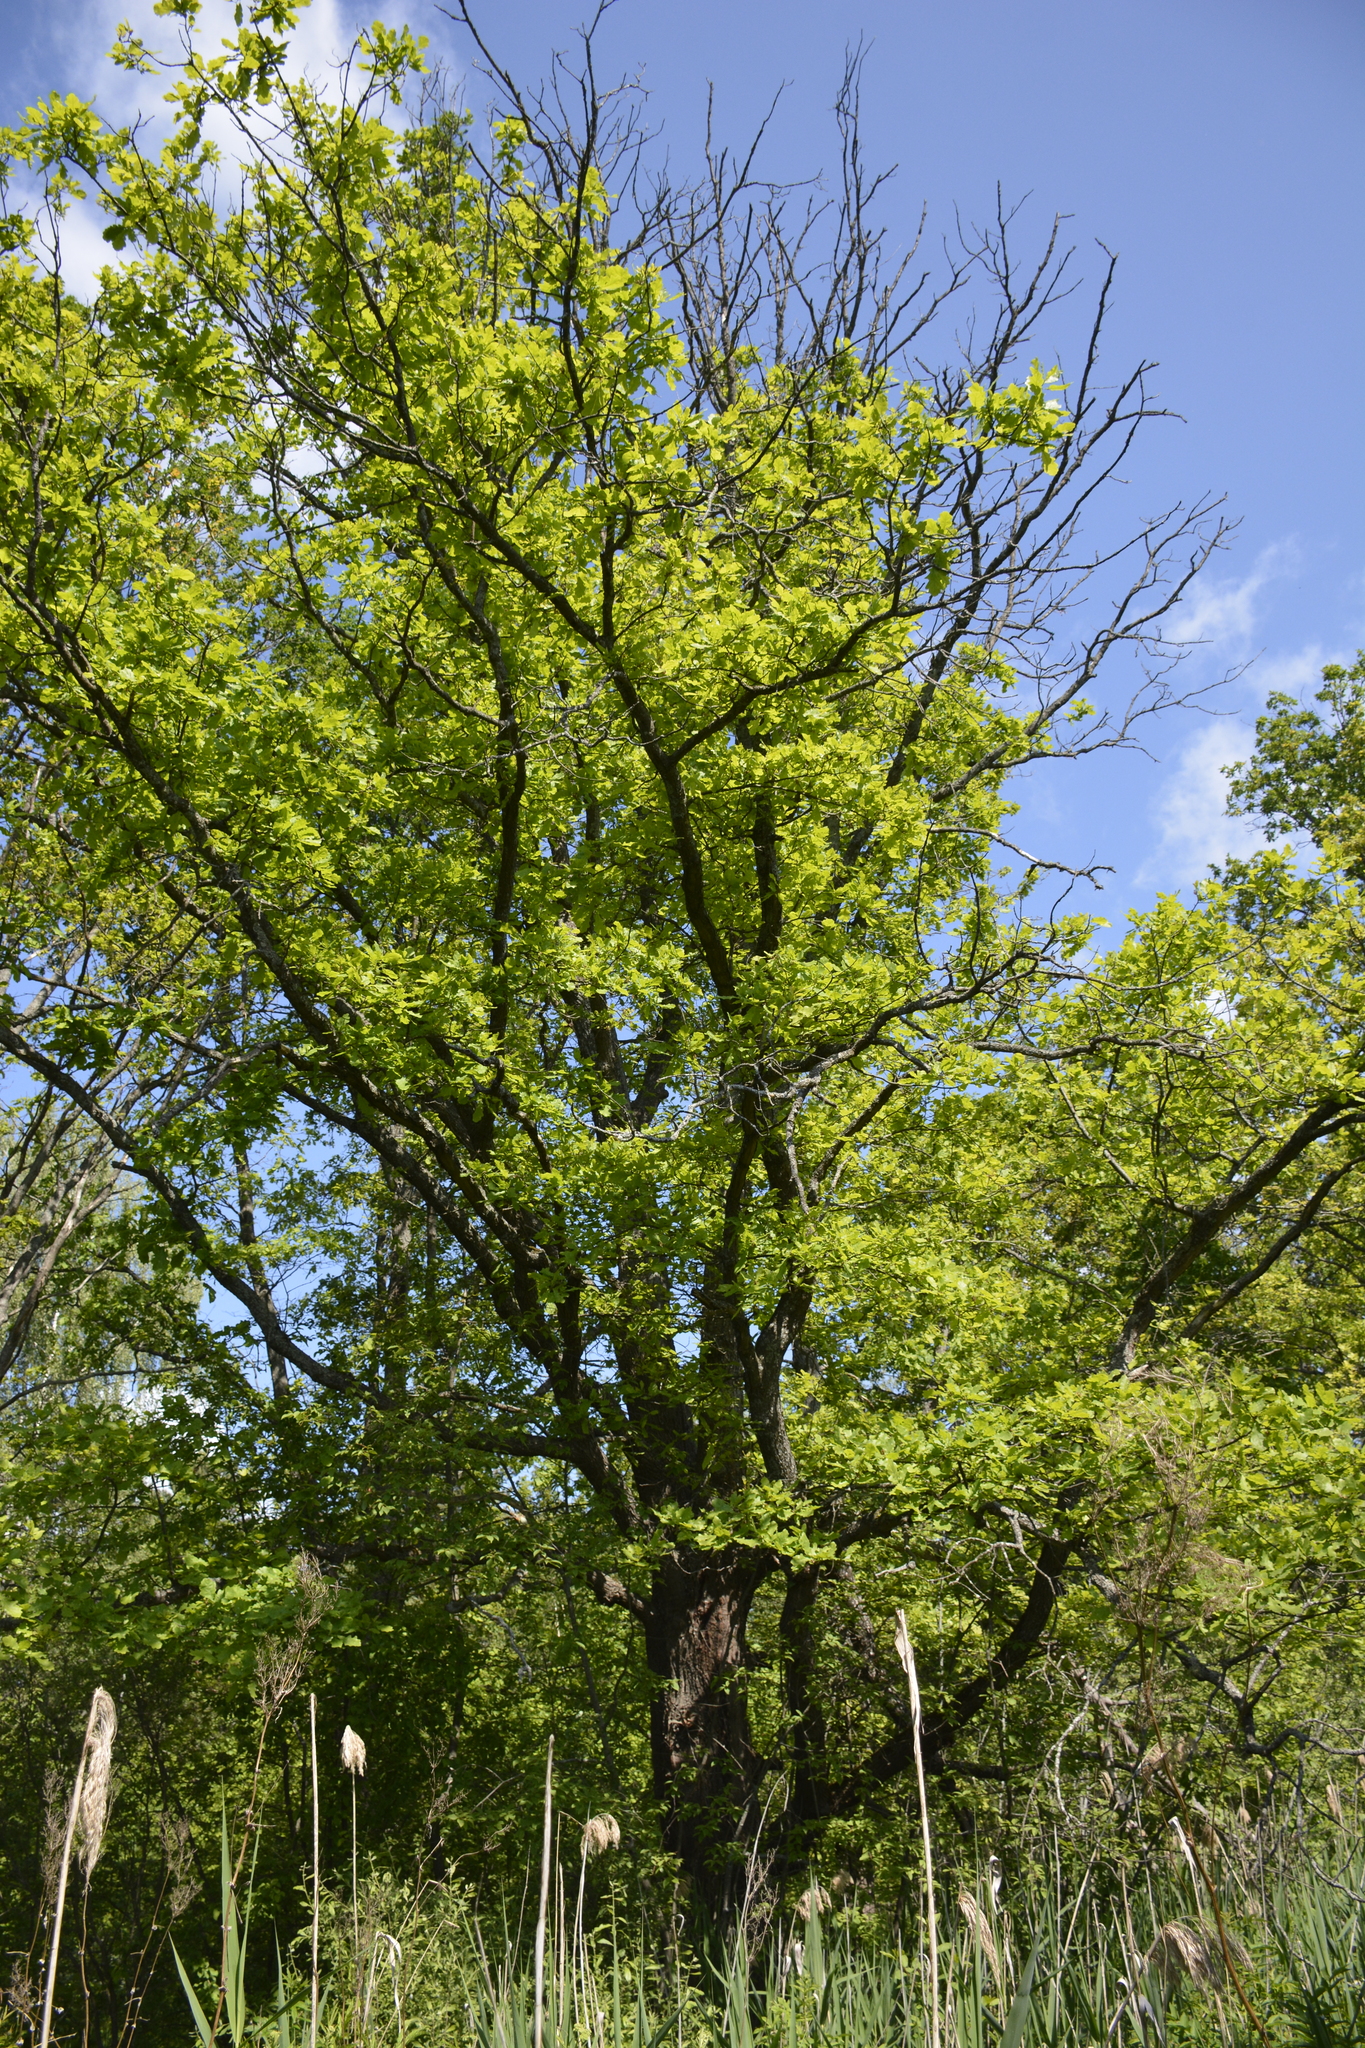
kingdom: Plantae
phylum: Tracheophyta
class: Magnoliopsida
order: Fagales
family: Fagaceae
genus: Quercus
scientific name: Quercus robur
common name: Pedunculate oak
